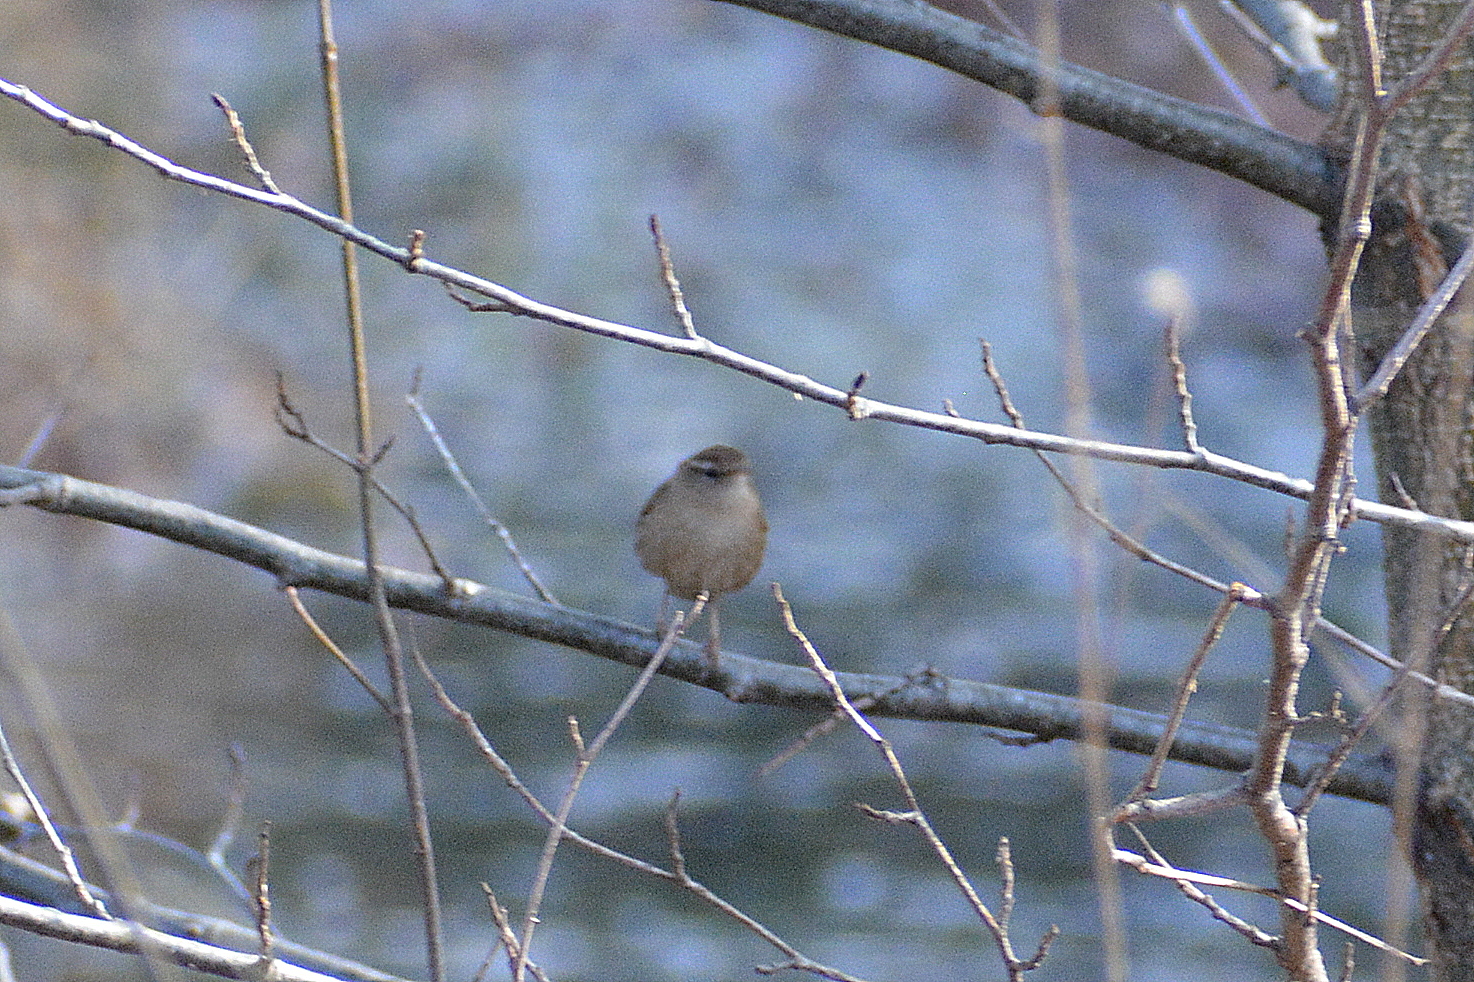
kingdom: Animalia
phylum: Chordata
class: Aves
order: Passeriformes
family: Troglodytidae
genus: Troglodytes
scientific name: Troglodytes troglodytes
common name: Eurasian wren
